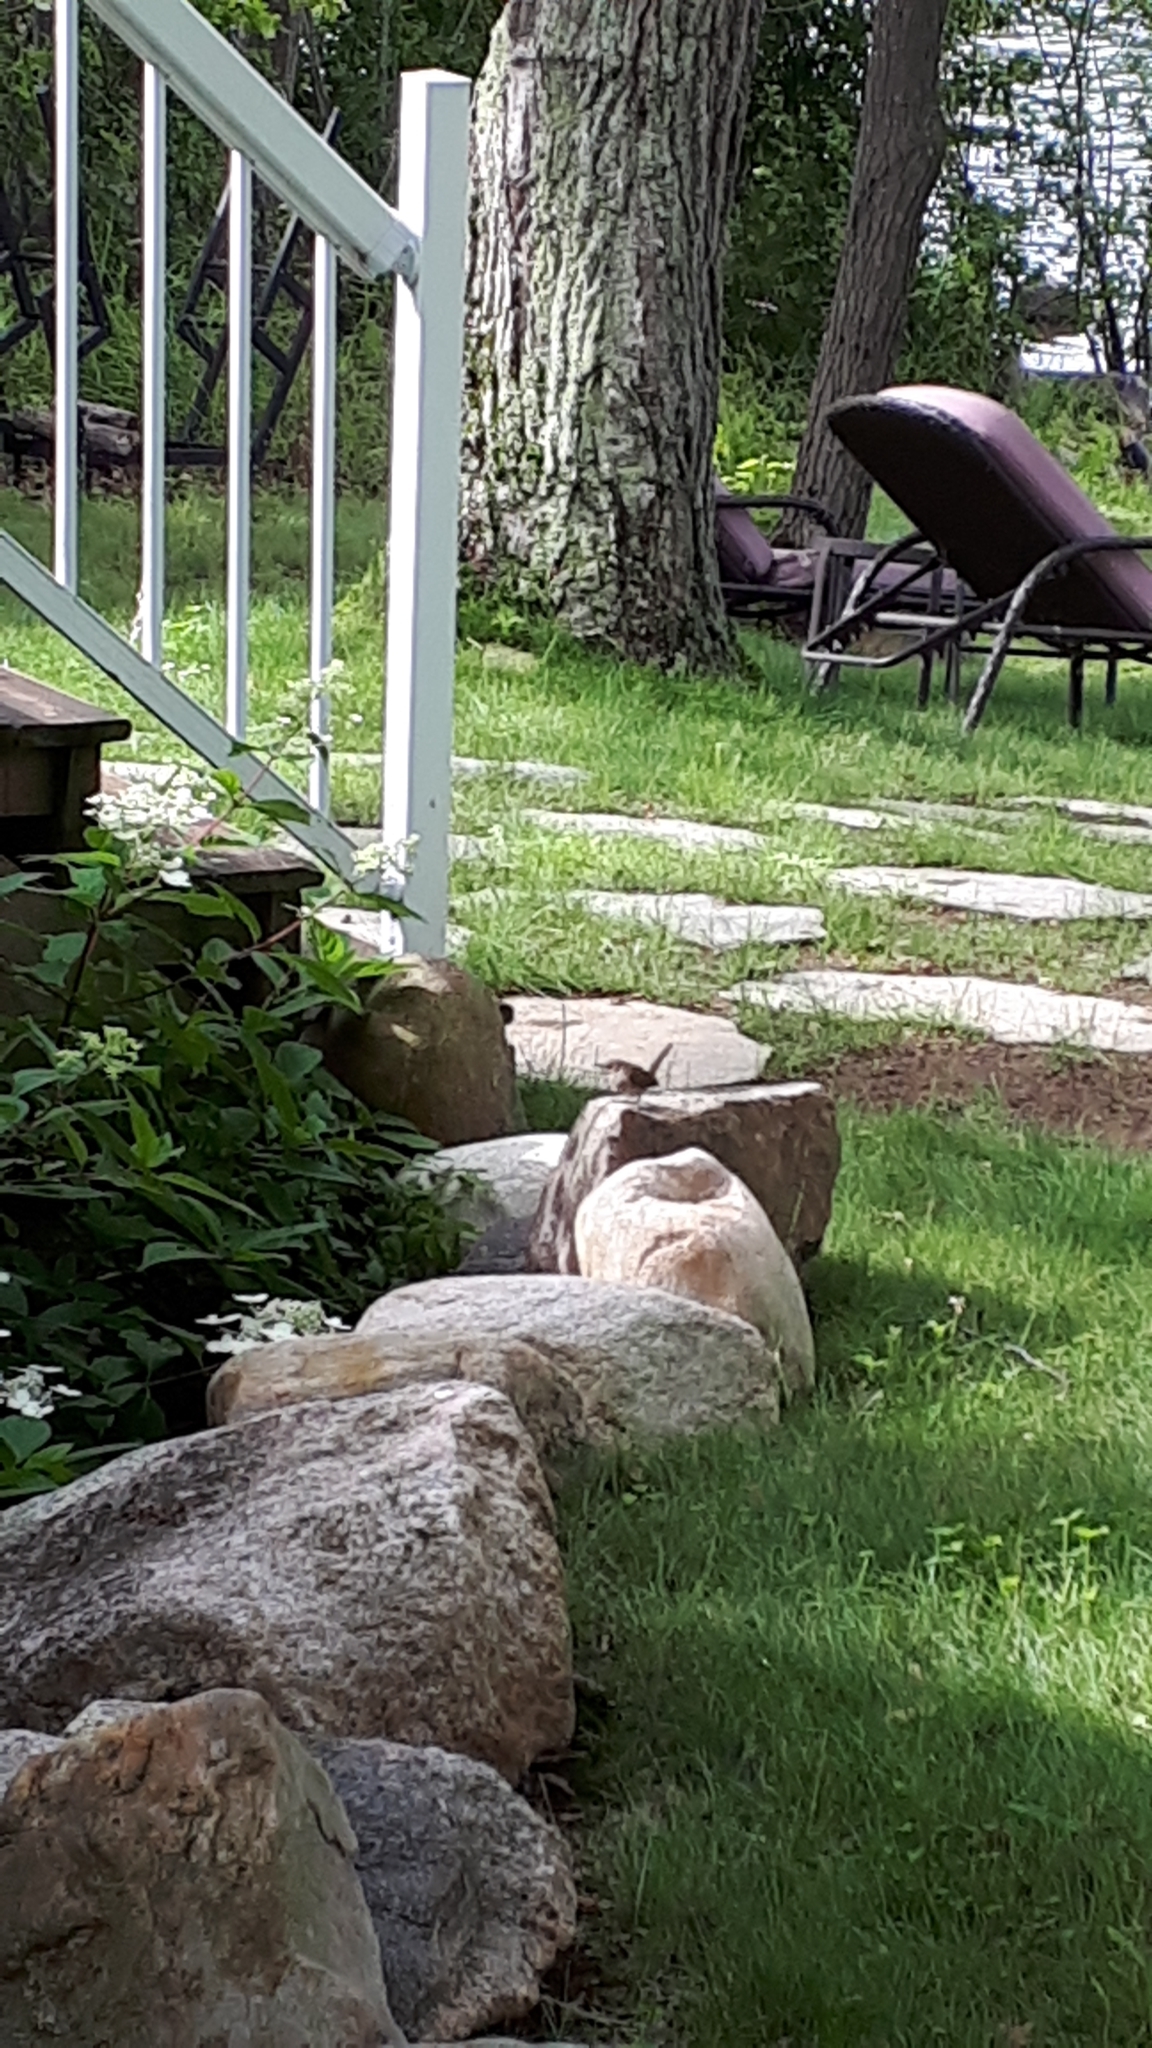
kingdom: Animalia
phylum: Chordata
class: Aves
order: Passeriformes
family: Troglodytidae
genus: Troglodytes
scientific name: Troglodytes aedon
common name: House wren
